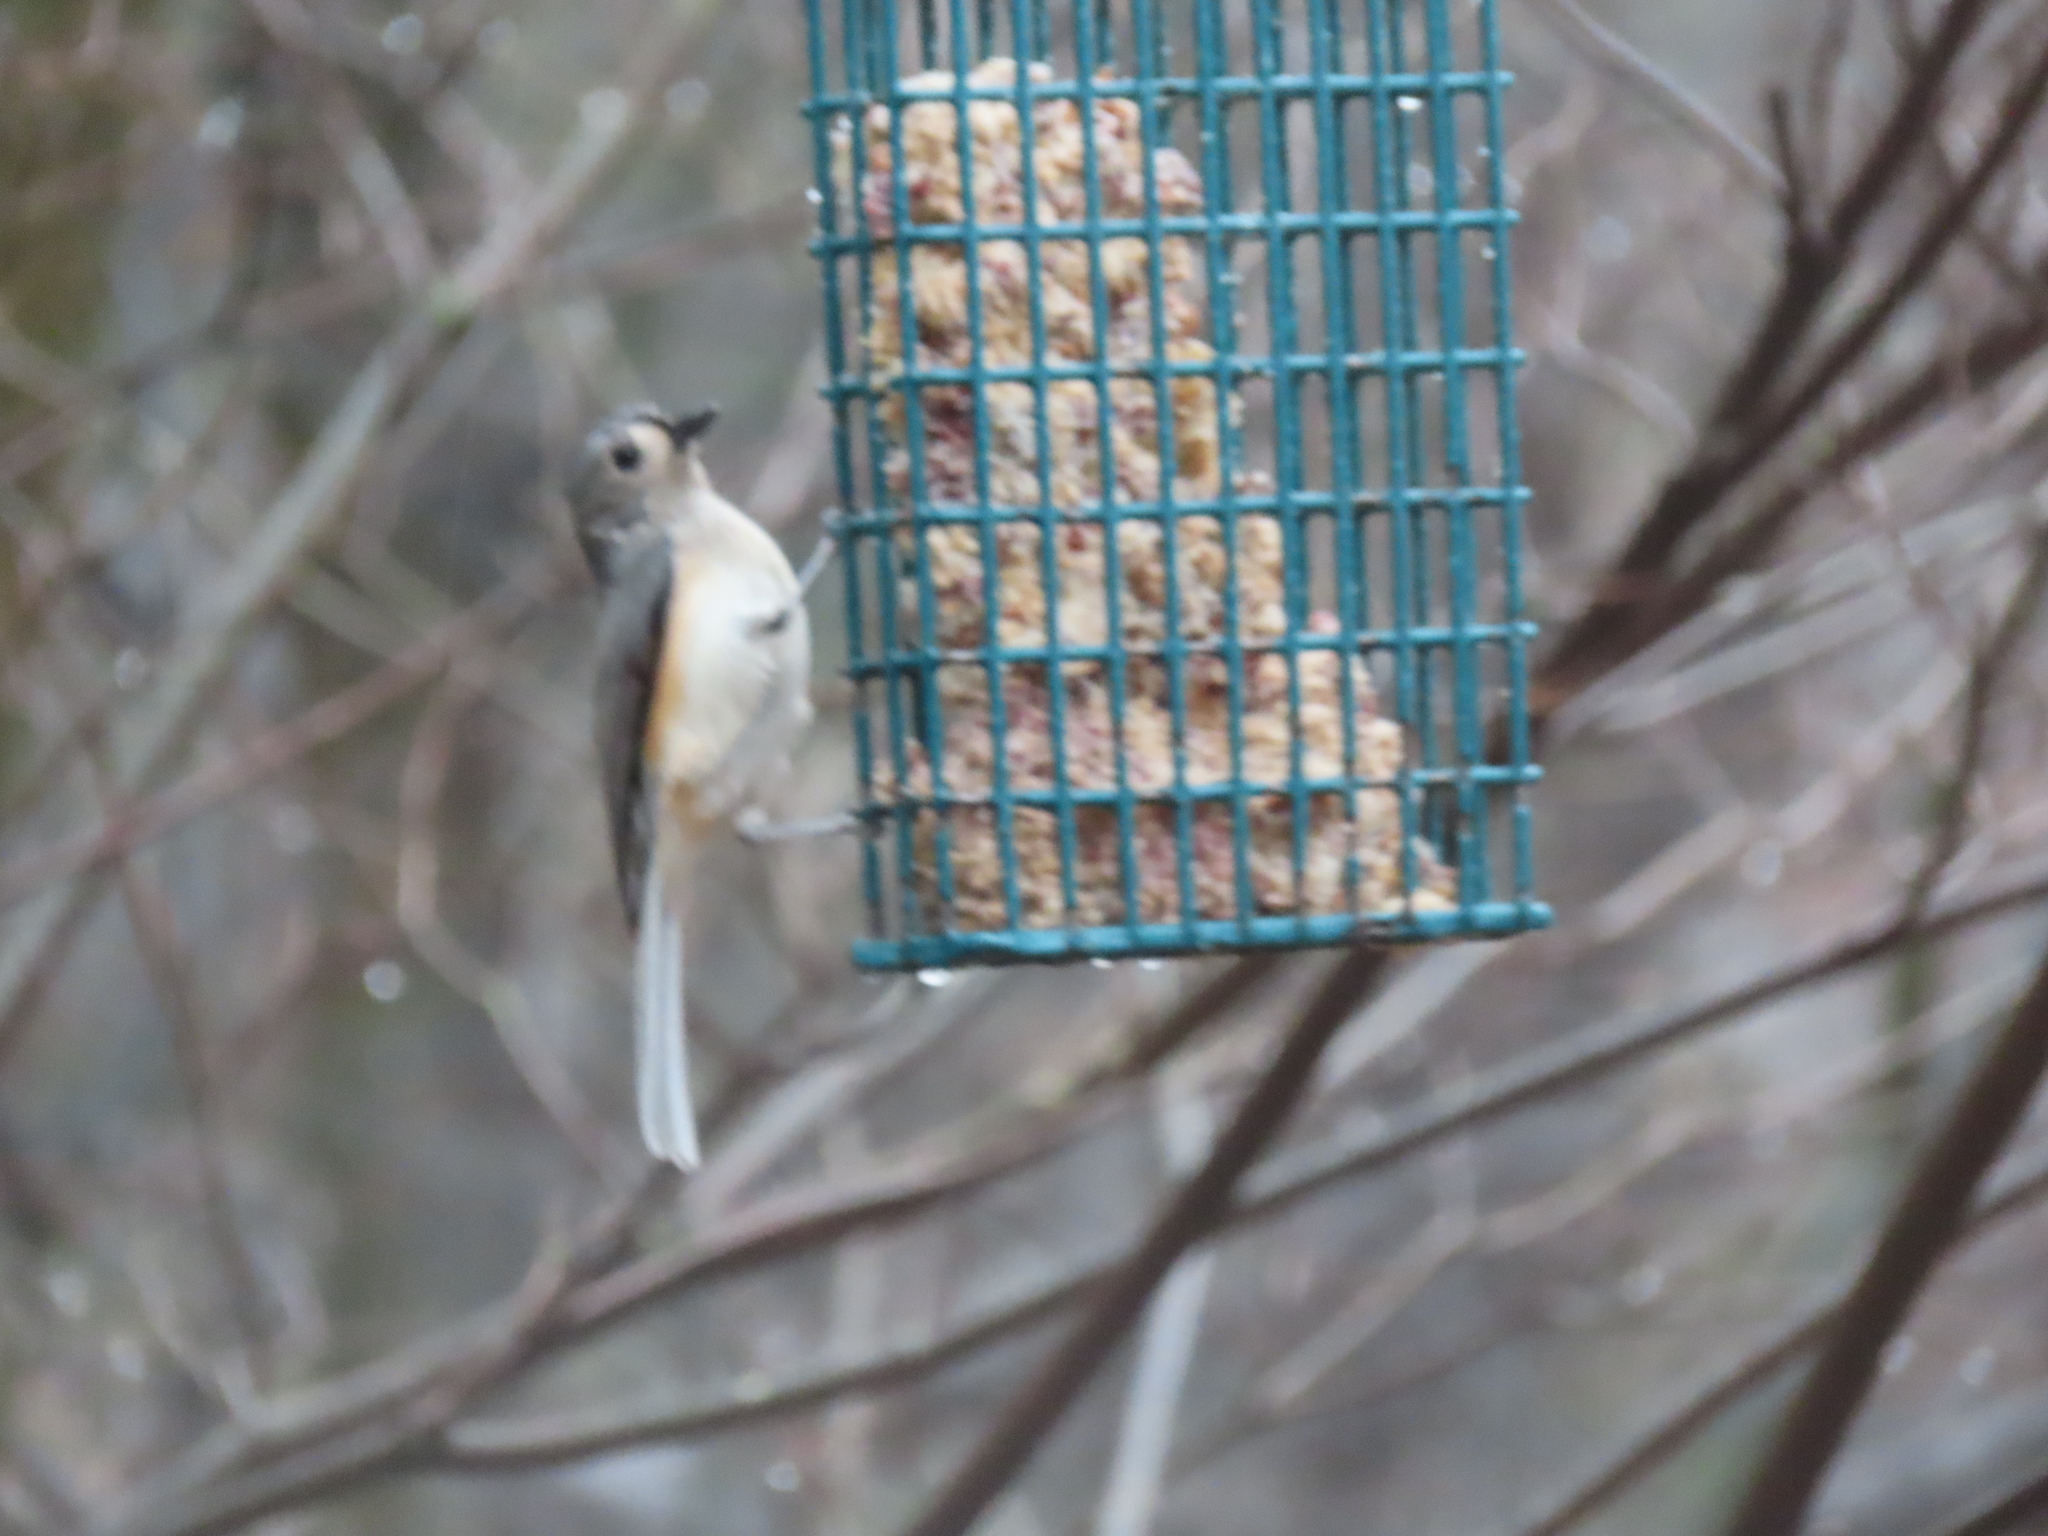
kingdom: Animalia
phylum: Chordata
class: Aves
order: Passeriformes
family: Paridae
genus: Baeolophus
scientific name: Baeolophus bicolor
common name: Tufted titmouse
